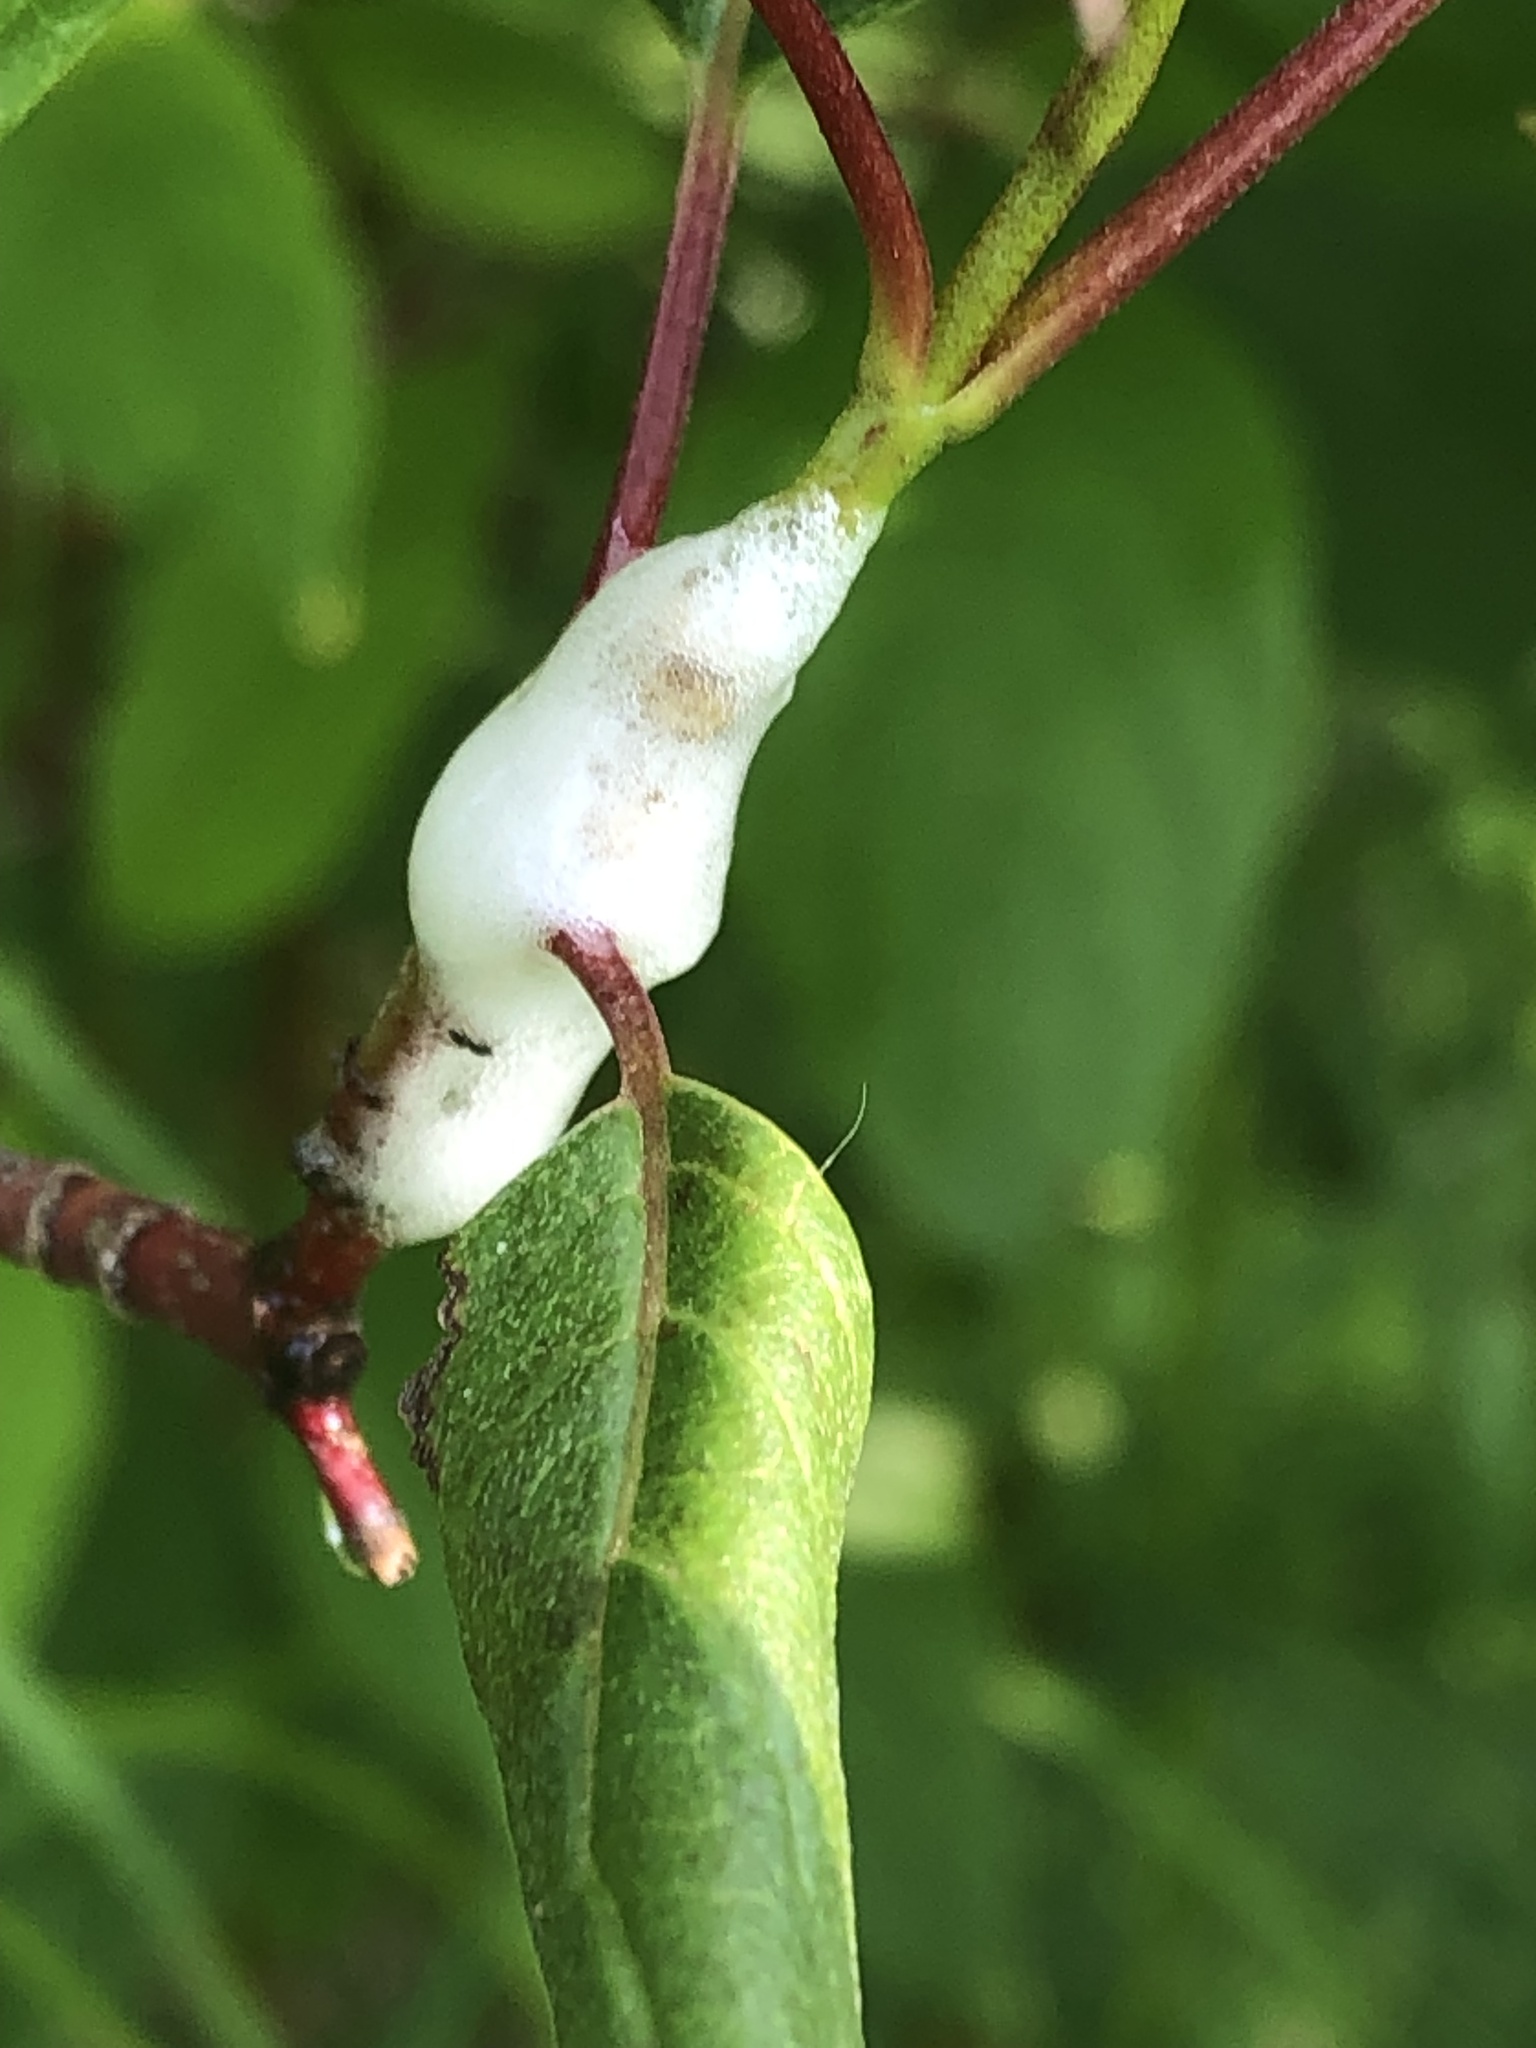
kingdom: Animalia
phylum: Arthropoda
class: Insecta
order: Hemiptera
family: Clastopteridae
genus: Clastoptera
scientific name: Clastoptera proteus
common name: Dogwood spittlebug
